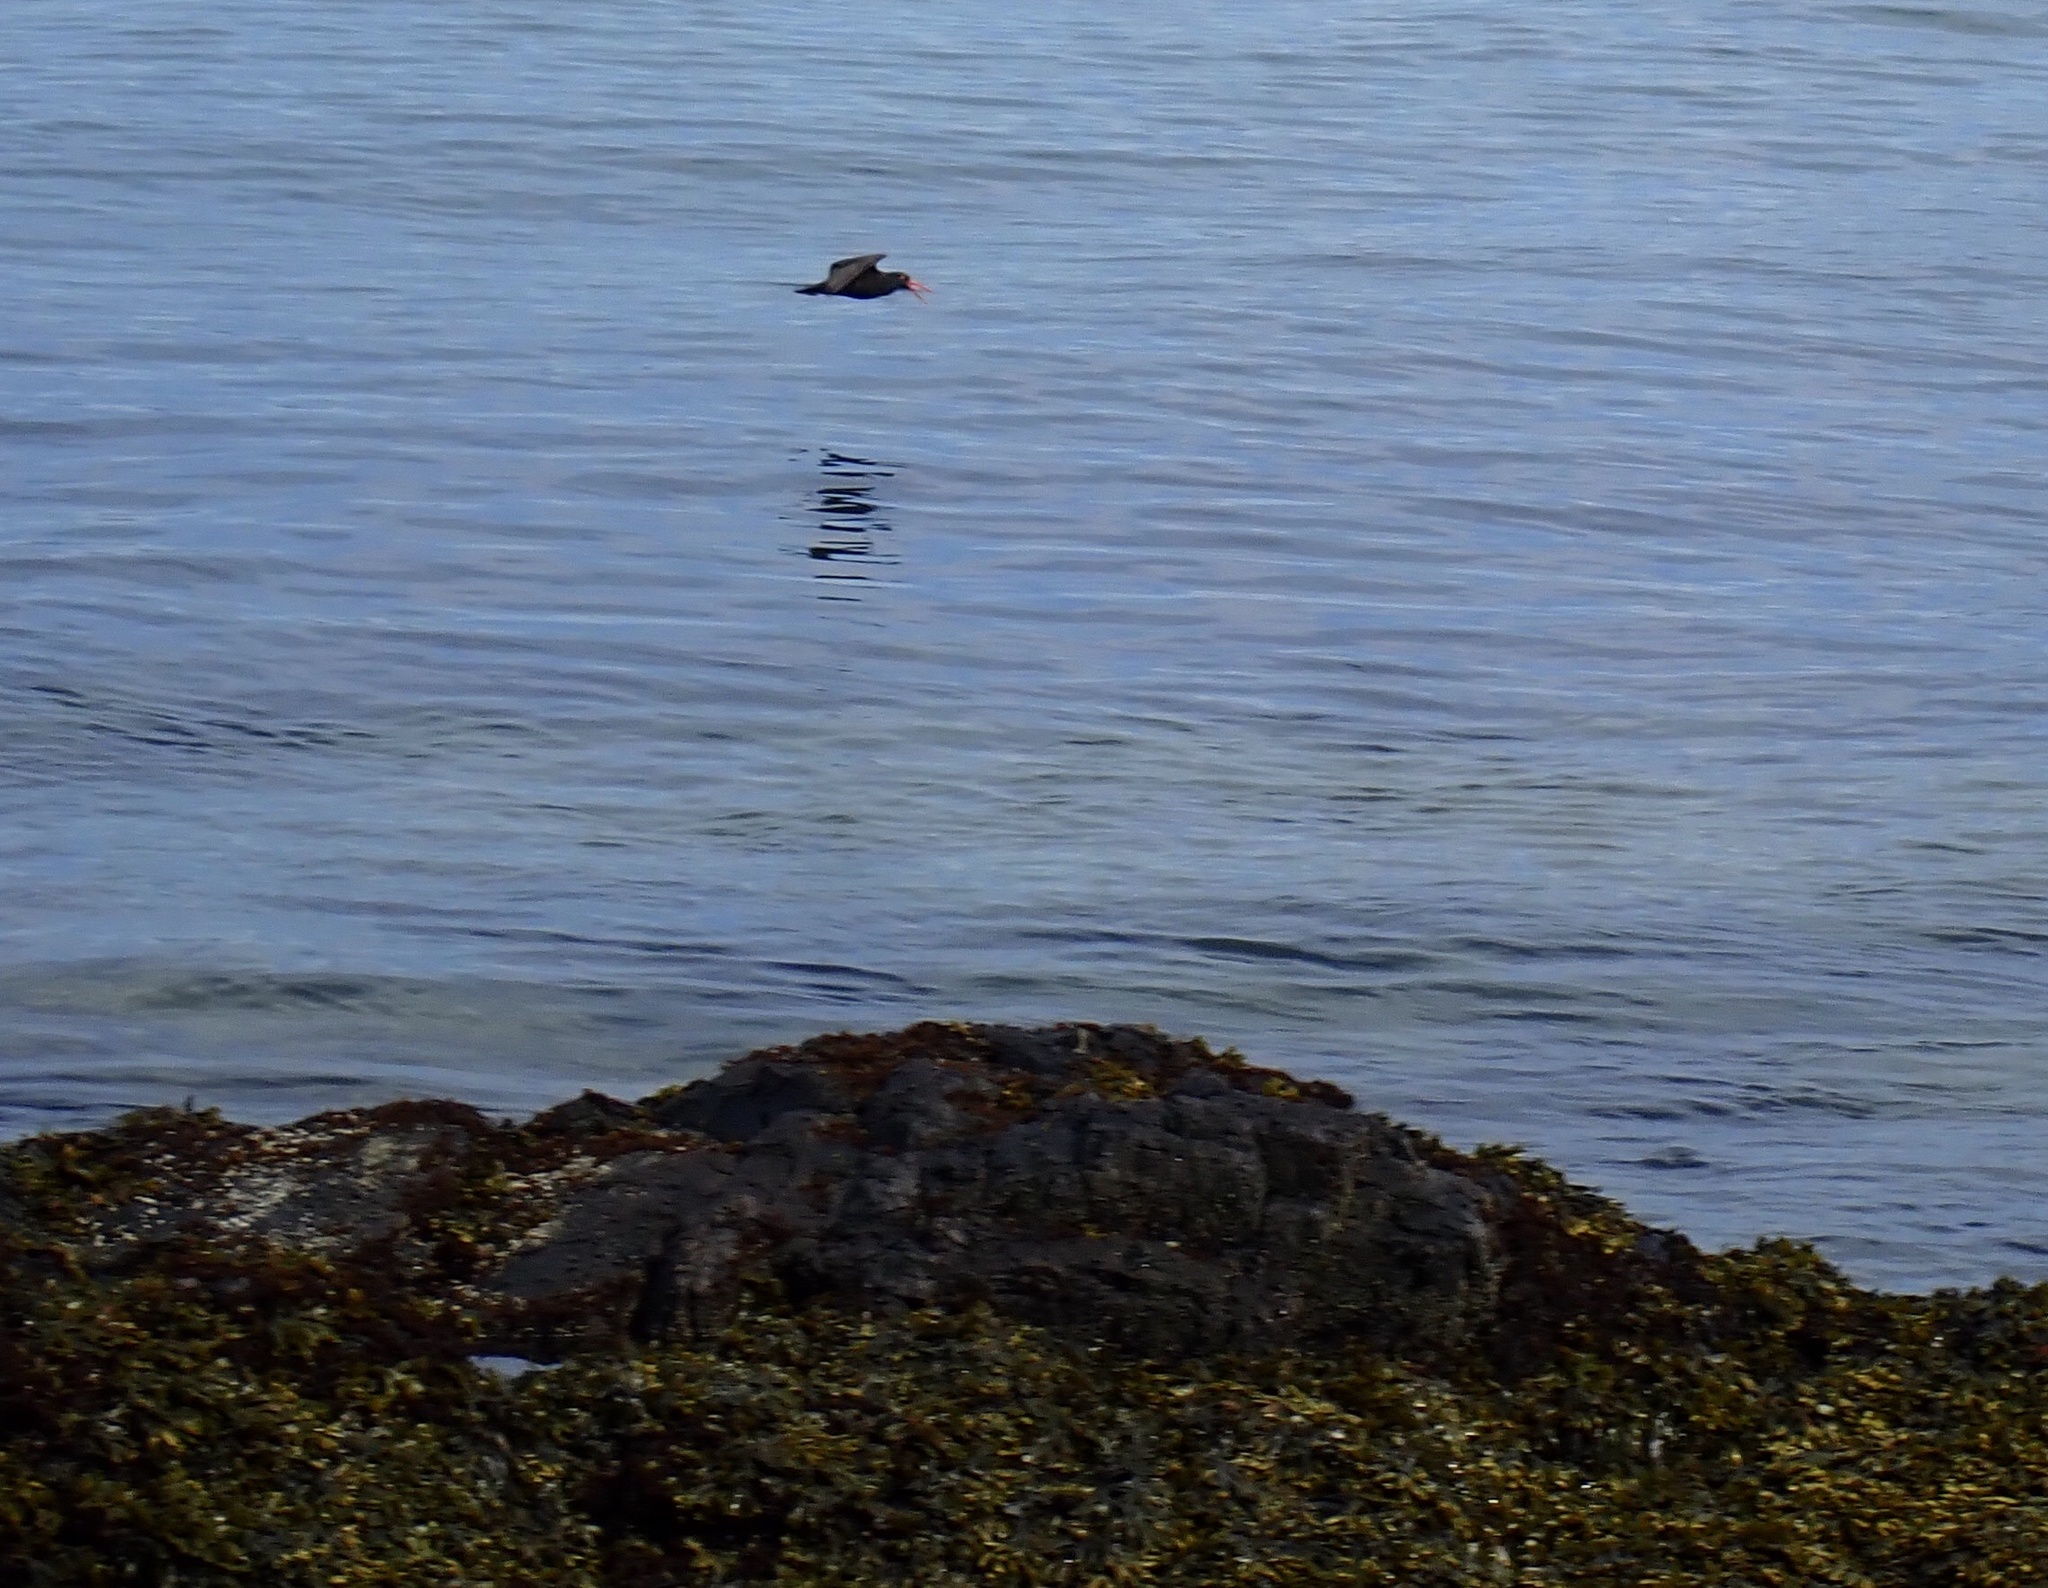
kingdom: Animalia
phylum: Chordata
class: Aves
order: Charadriiformes
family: Haematopodidae
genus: Haematopus
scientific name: Haematopus bachmani
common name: Black oystercatcher
